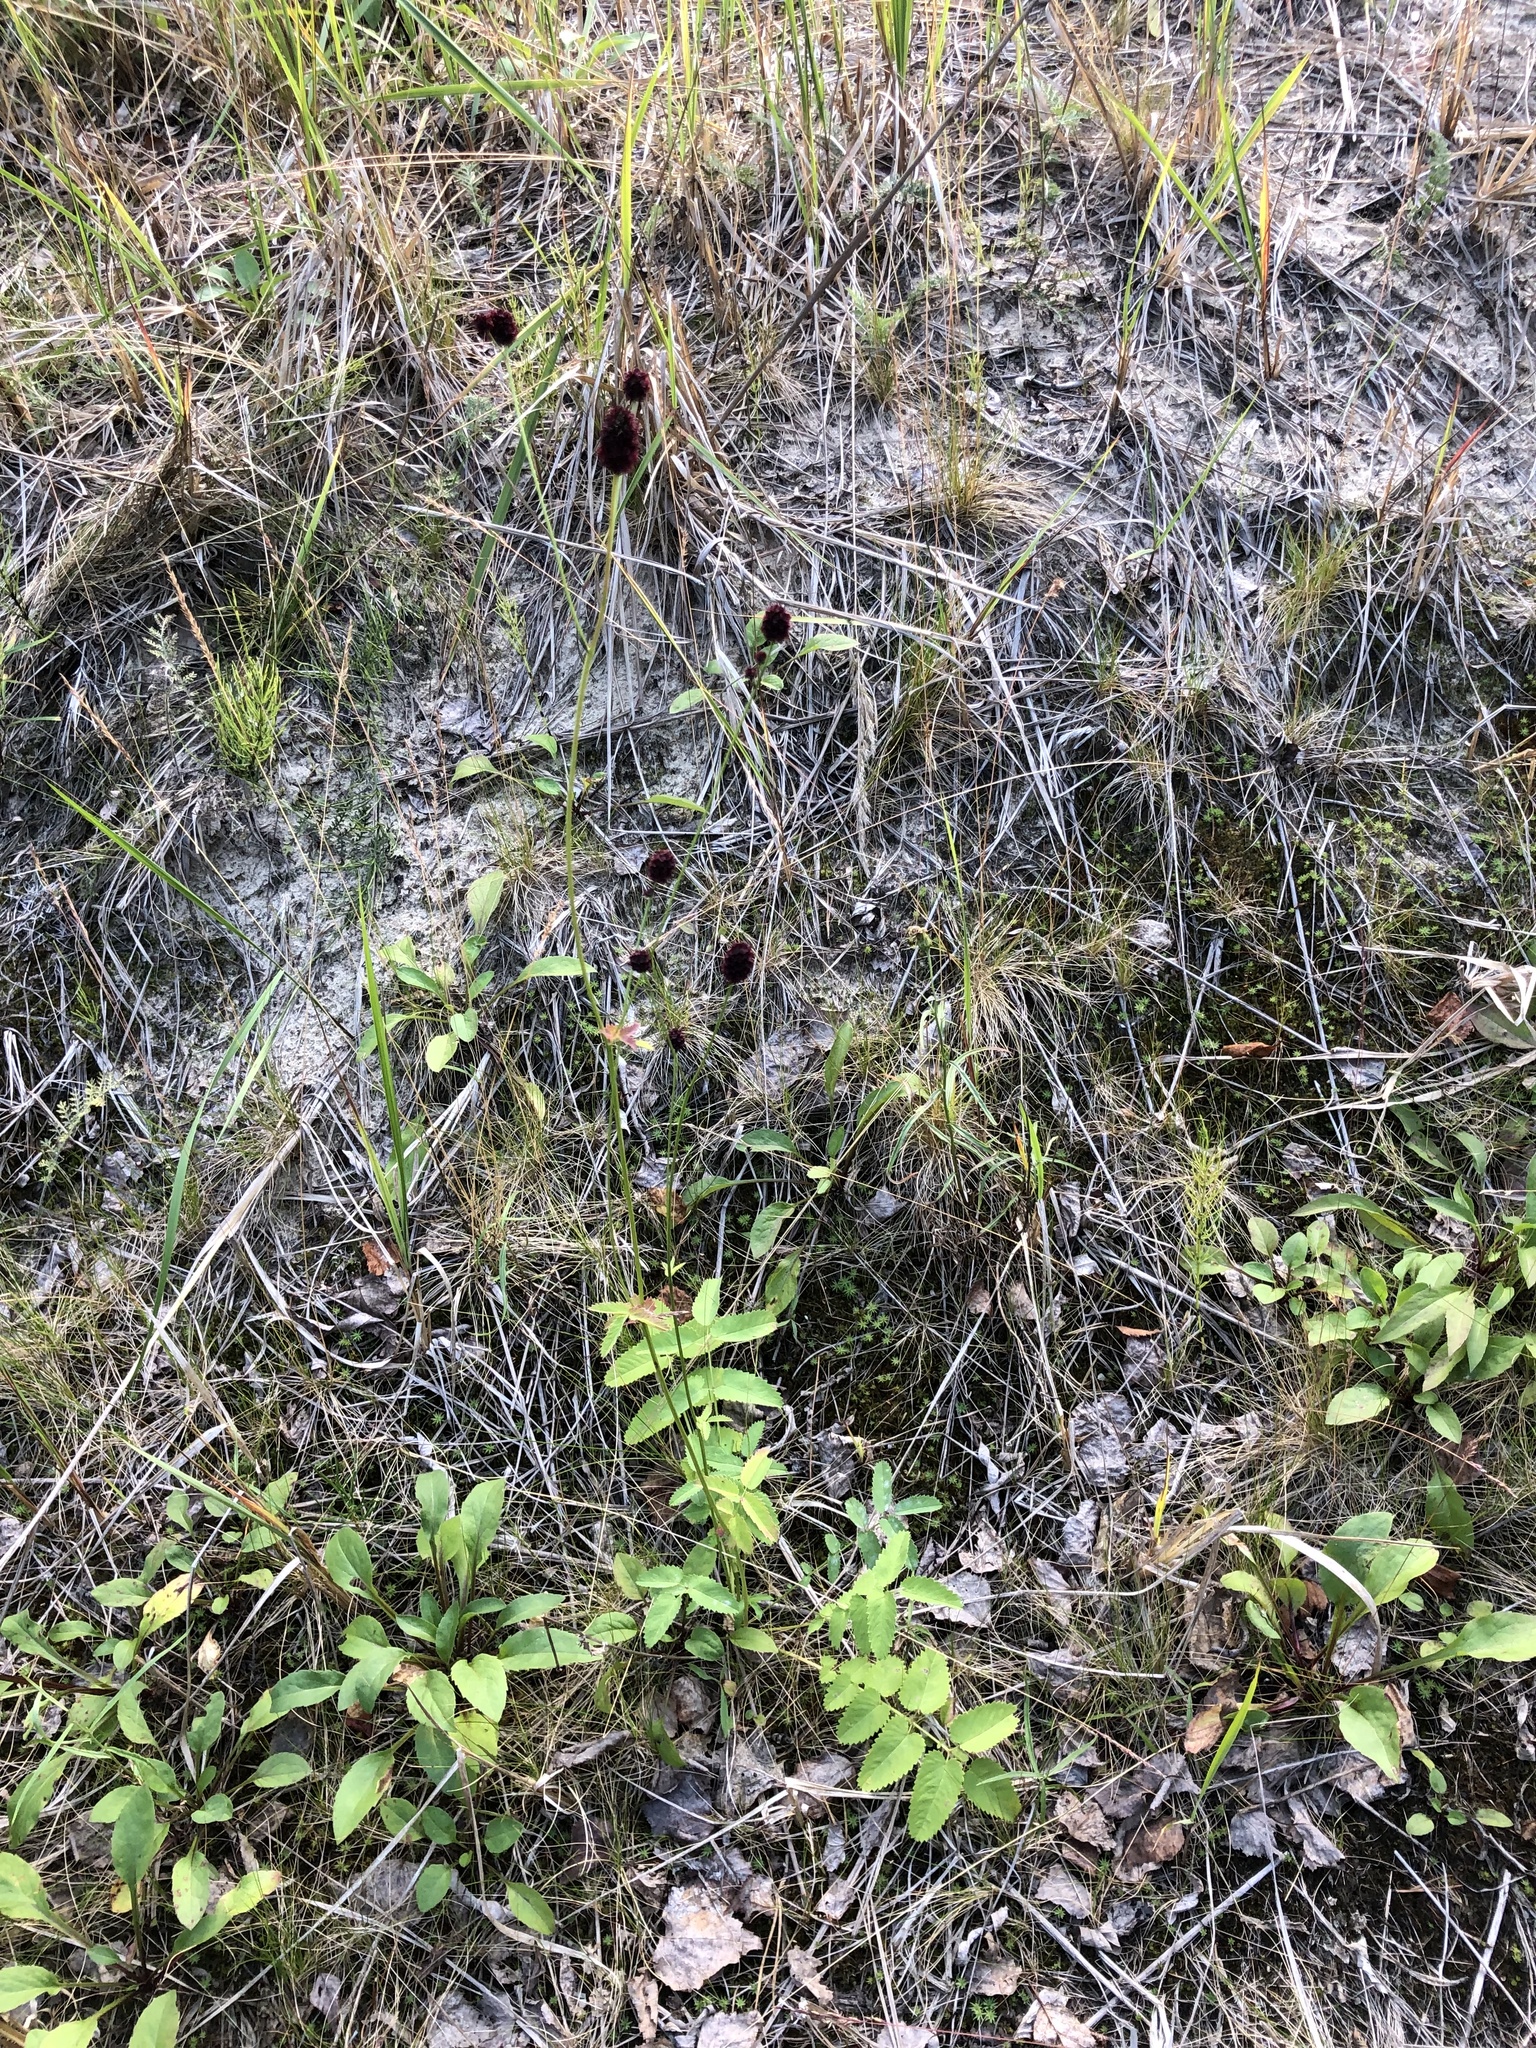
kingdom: Plantae
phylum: Tracheophyta
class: Magnoliopsida
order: Rosales
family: Rosaceae
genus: Sanguisorba
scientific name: Sanguisorba officinalis
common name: Great burnet
